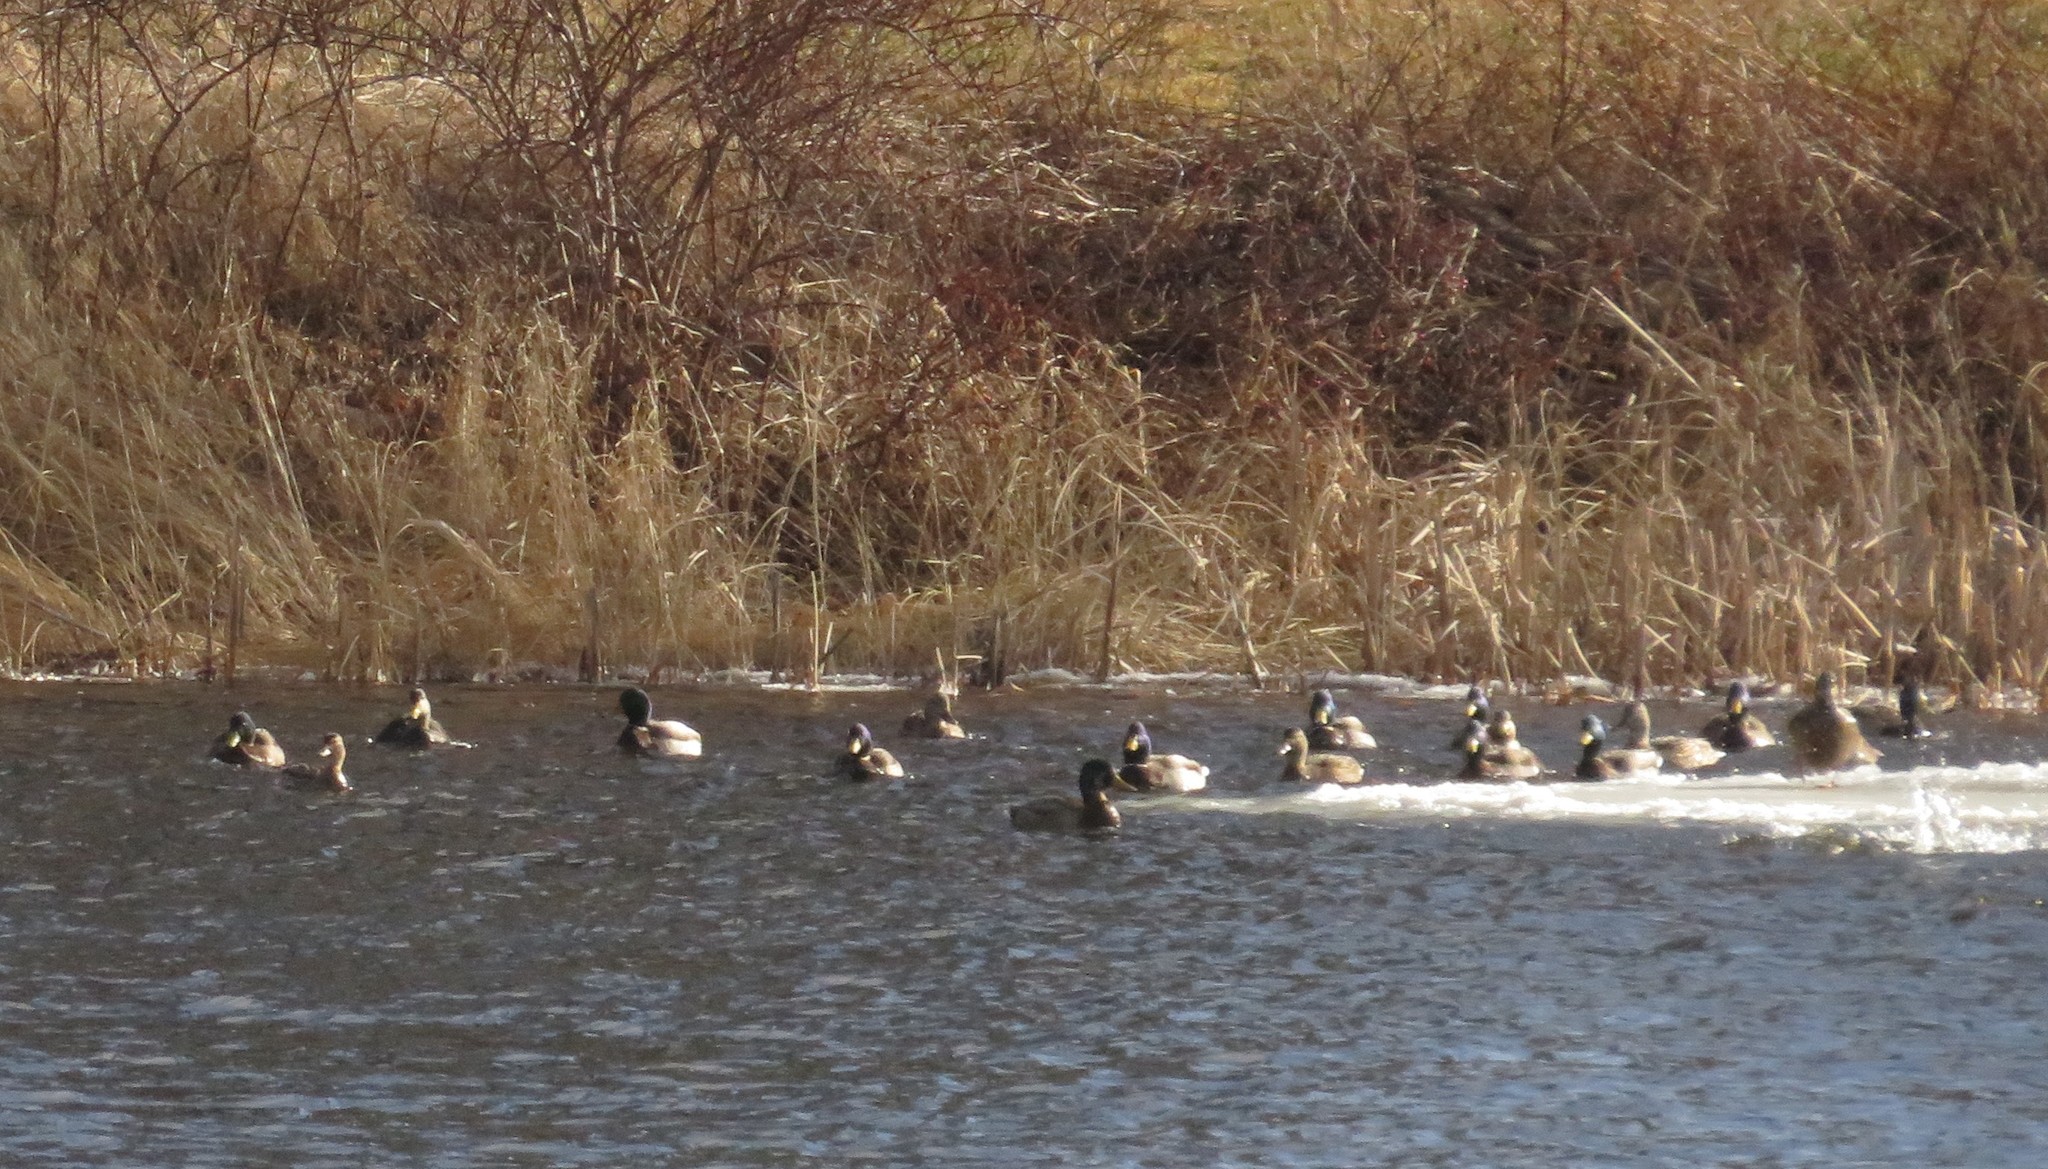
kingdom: Animalia
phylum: Chordata
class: Aves
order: Anseriformes
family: Anatidae
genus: Anas
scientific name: Anas platyrhynchos
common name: Mallard
